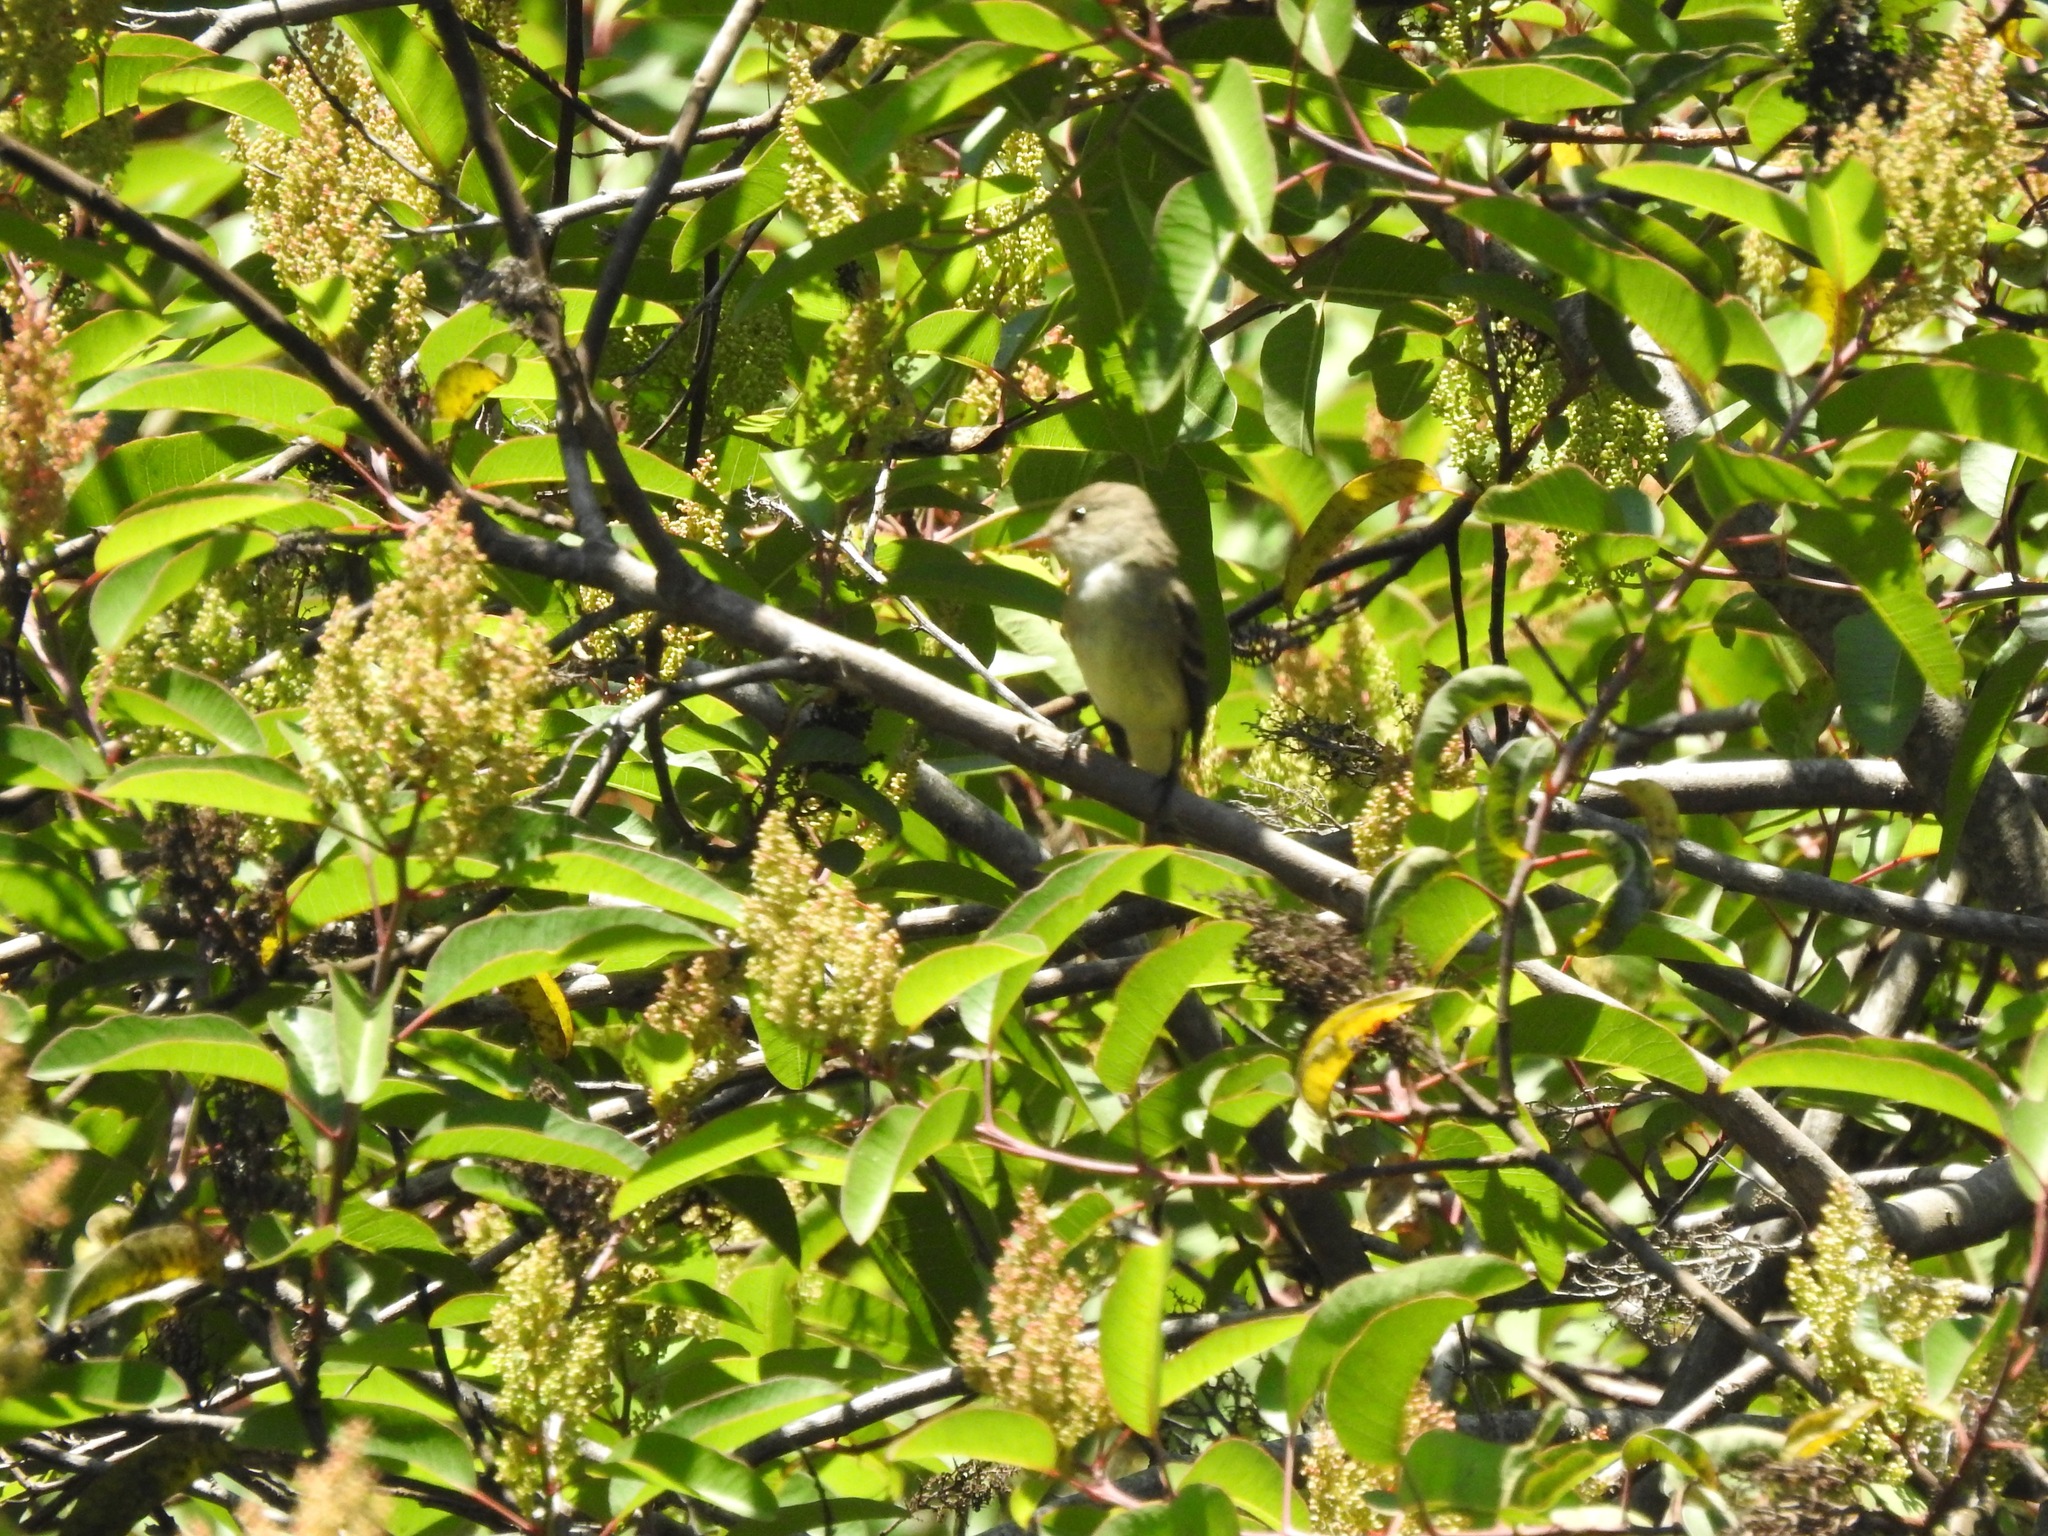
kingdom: Animalia
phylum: Chordata
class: Aves
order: Passeriformes
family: Tyrannidae
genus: Empidonax
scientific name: Empidonax traillii
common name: Willow flycatcher
